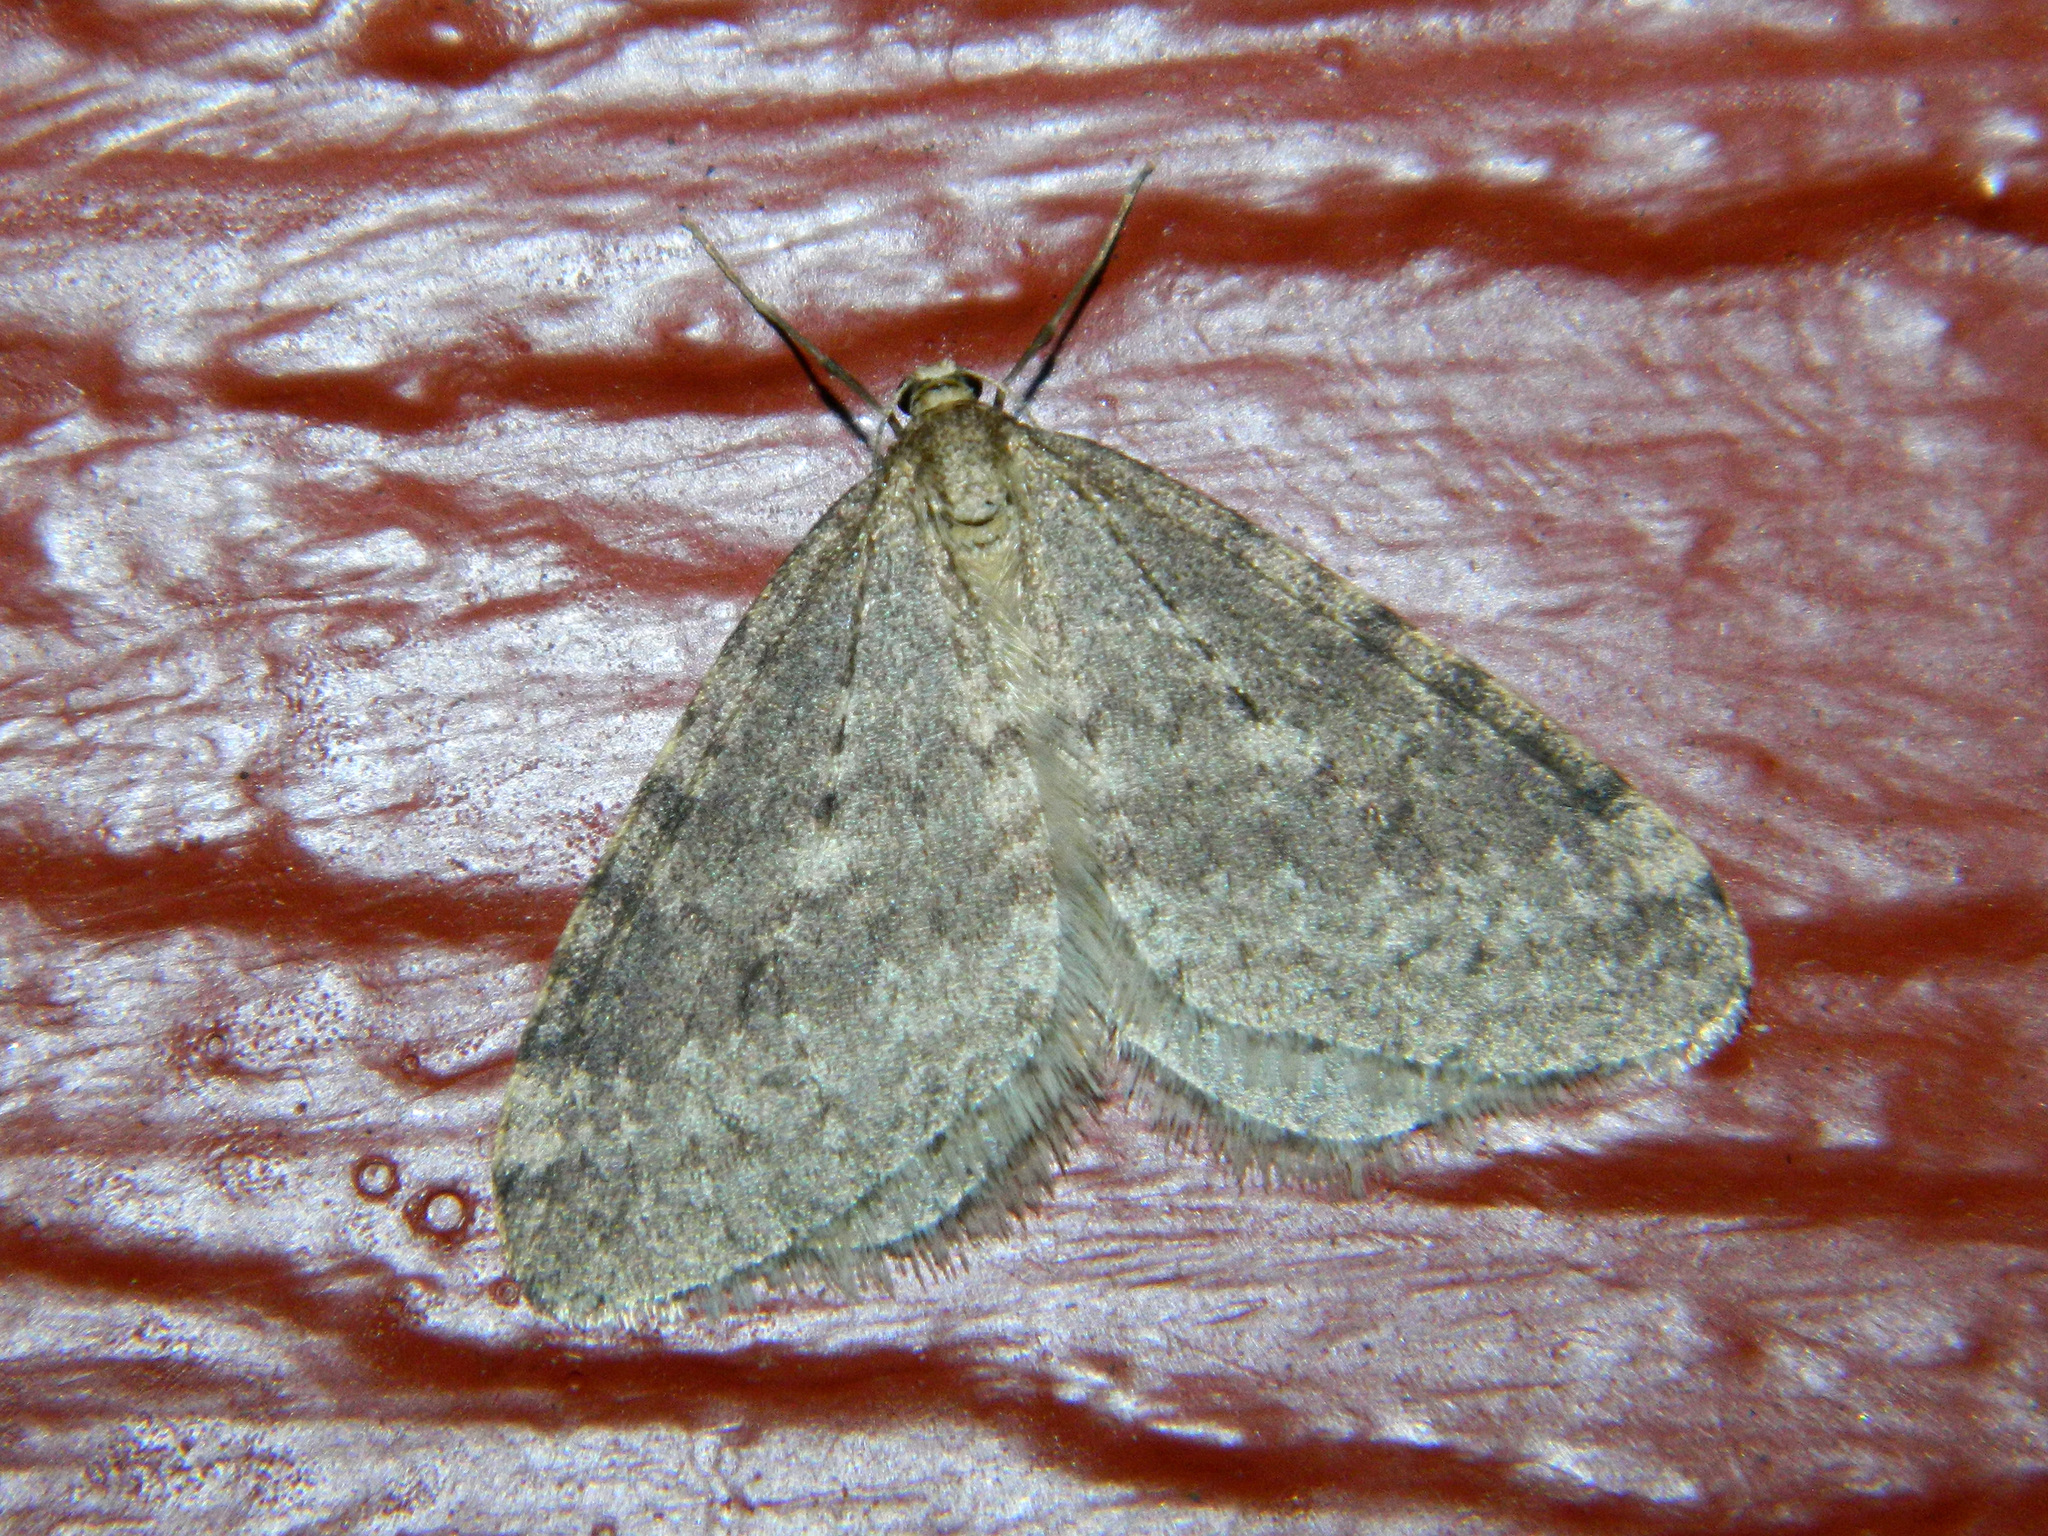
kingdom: Animalia
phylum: Arthropoda
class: Insecta
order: Lepidoptera
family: Geometridae
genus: Operophtera
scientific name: Operophtera bruceata
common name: Bruce spanworm
